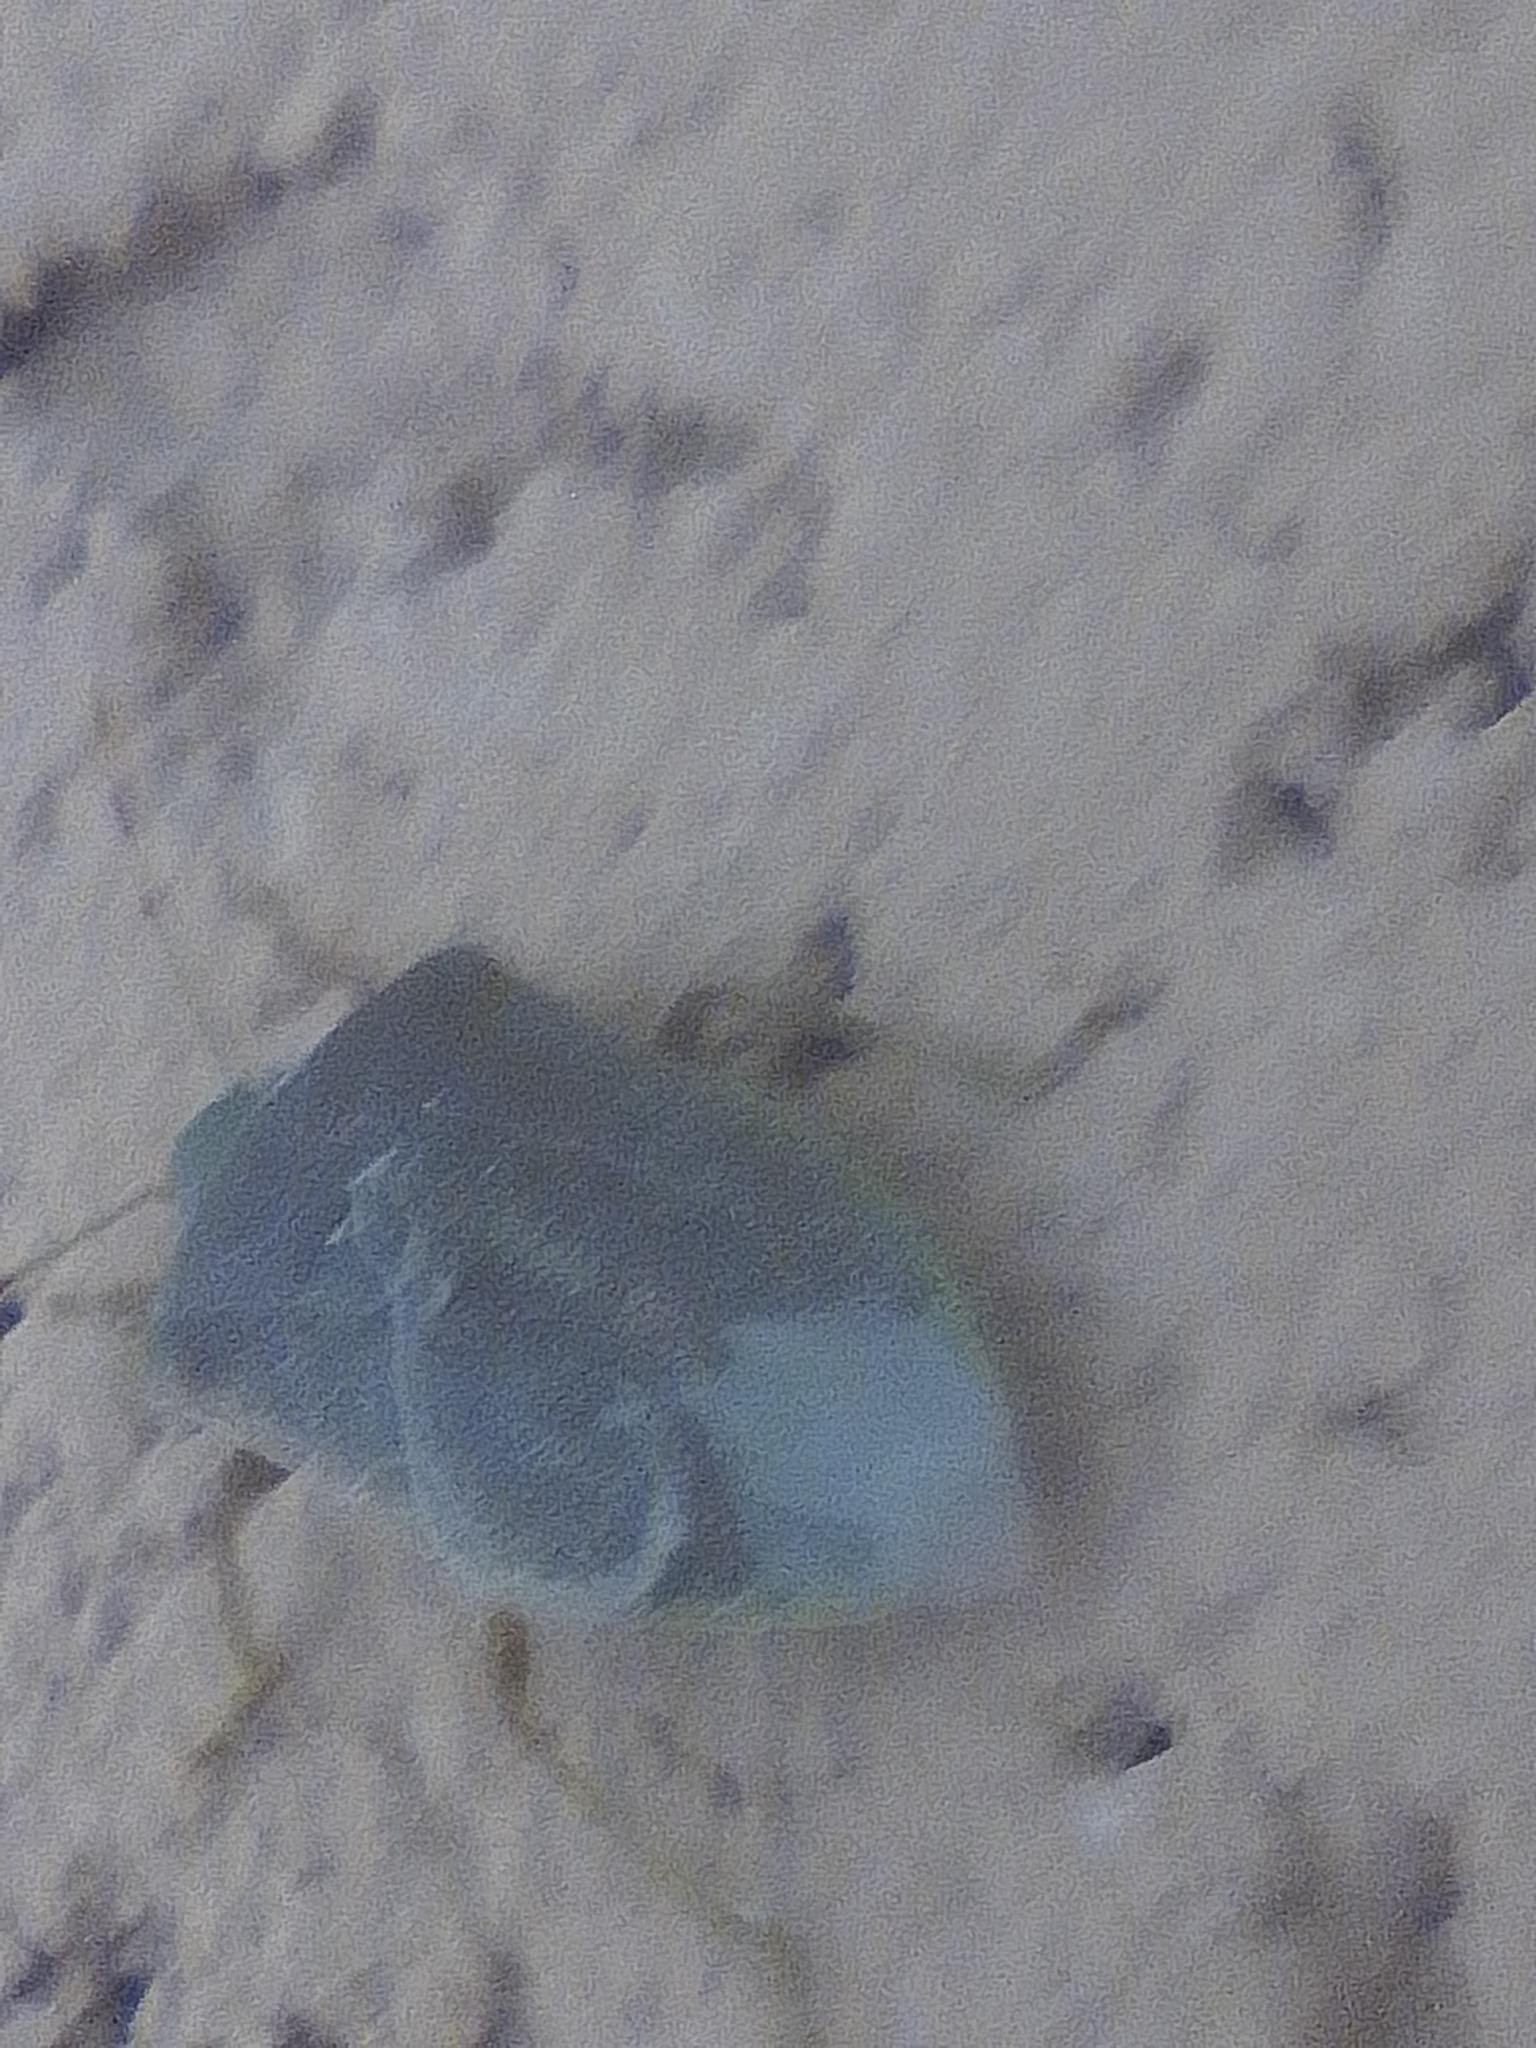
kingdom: Animalia
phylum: Arthropoda
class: Insecta
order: Hemiptera
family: Pentatomidae
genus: Nezara
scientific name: Nezara viridula
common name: Southern green stink bug
